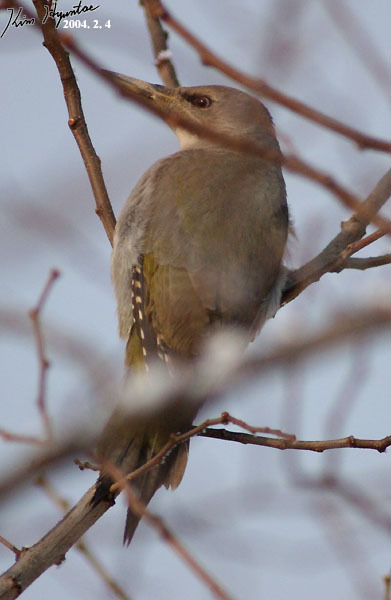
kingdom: Animalia
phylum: Chordata
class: Aves
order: Piciformes
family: Picidae
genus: Picus
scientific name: Picus canus
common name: Grey-headed woodpecker
